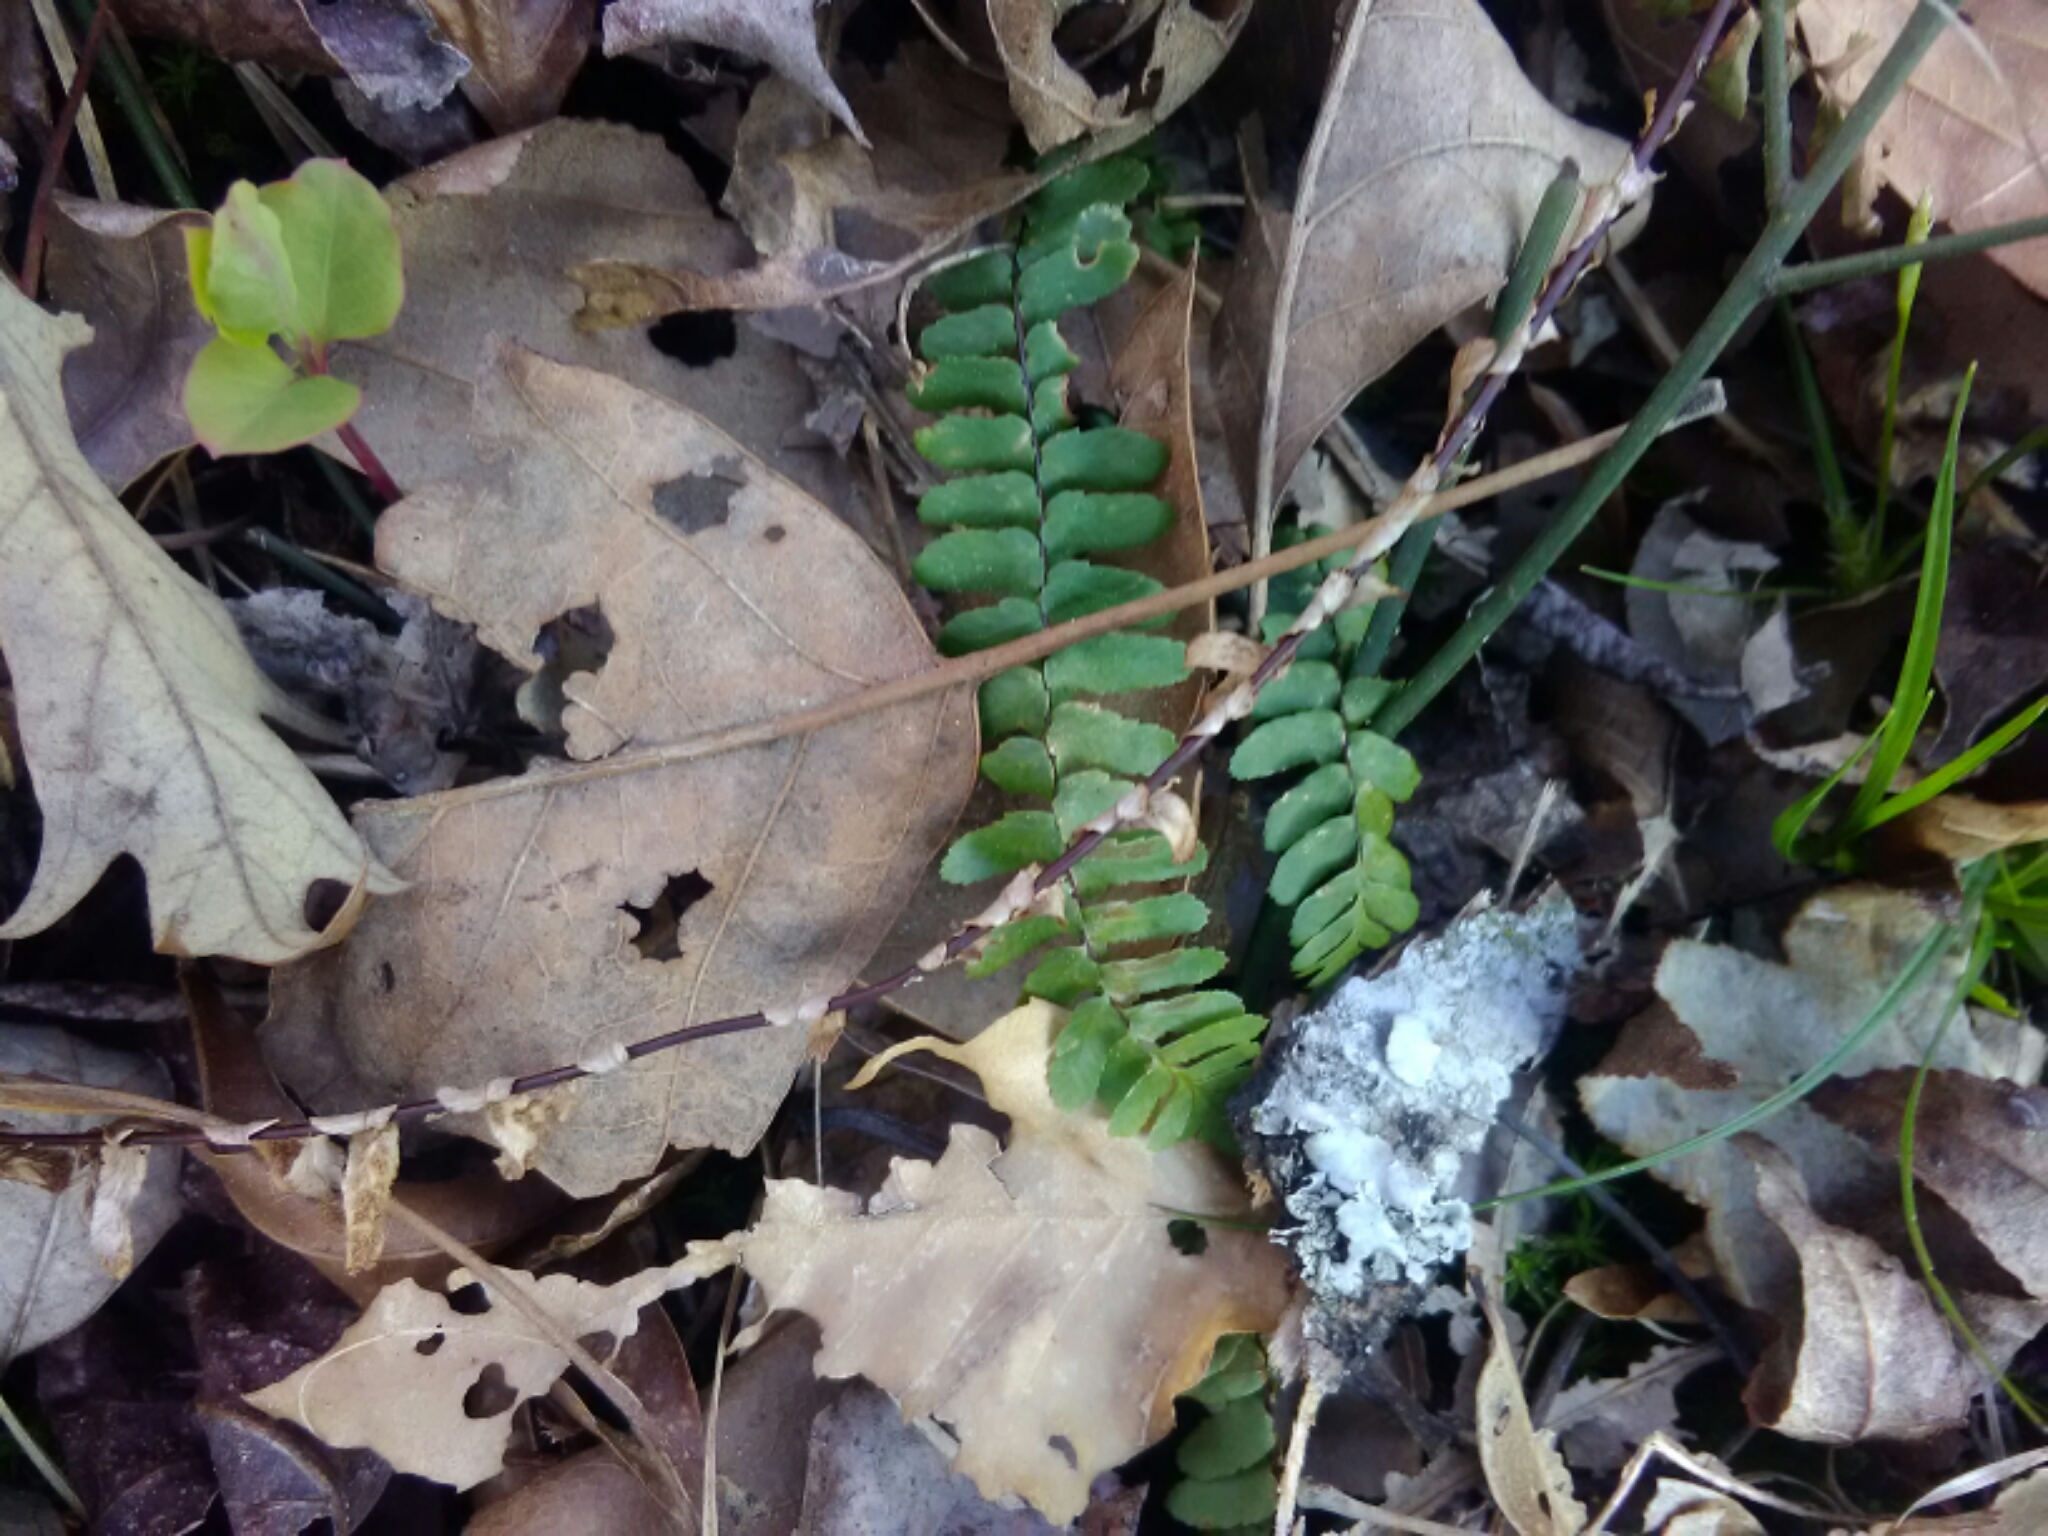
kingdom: Plantae
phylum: Tracheophyta
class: Polypodiopsida
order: Polypodiales
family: Aspleniaceae
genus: Asplenium
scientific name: Asplenium platyneuron
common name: Ebony spleenwort
